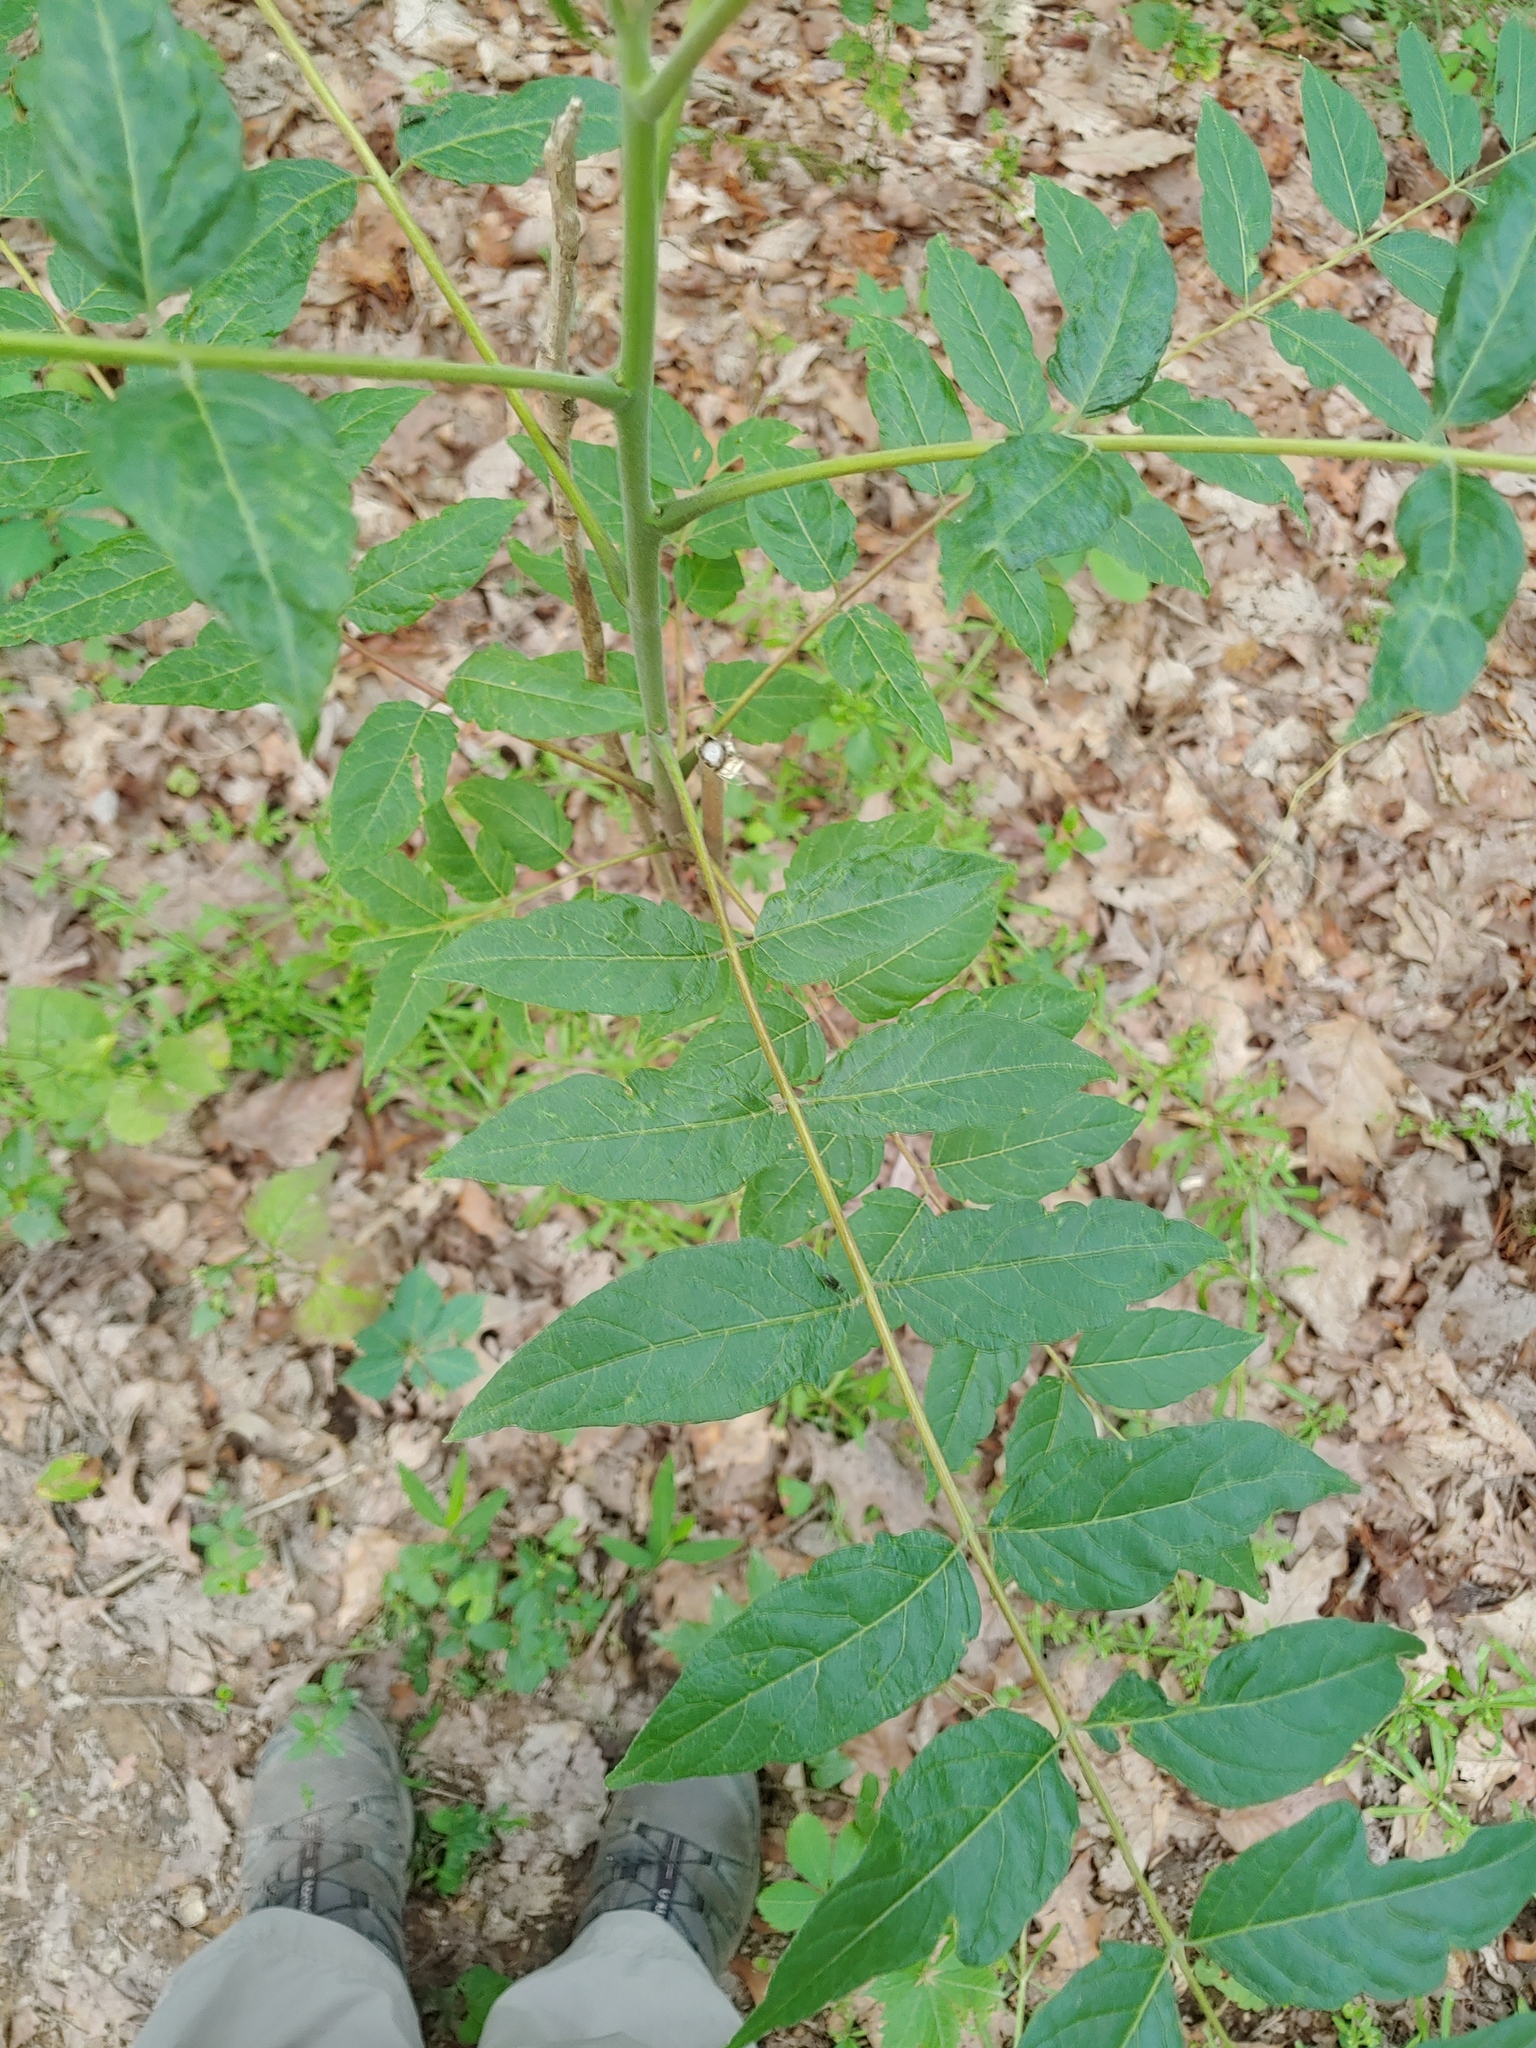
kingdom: Plantae
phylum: Tracheophyta
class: Magnoliopsida
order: Sapindales
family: Simaroubaceae
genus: Ailanthus
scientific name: Ailanthus altissima
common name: Tree-of-heaven
